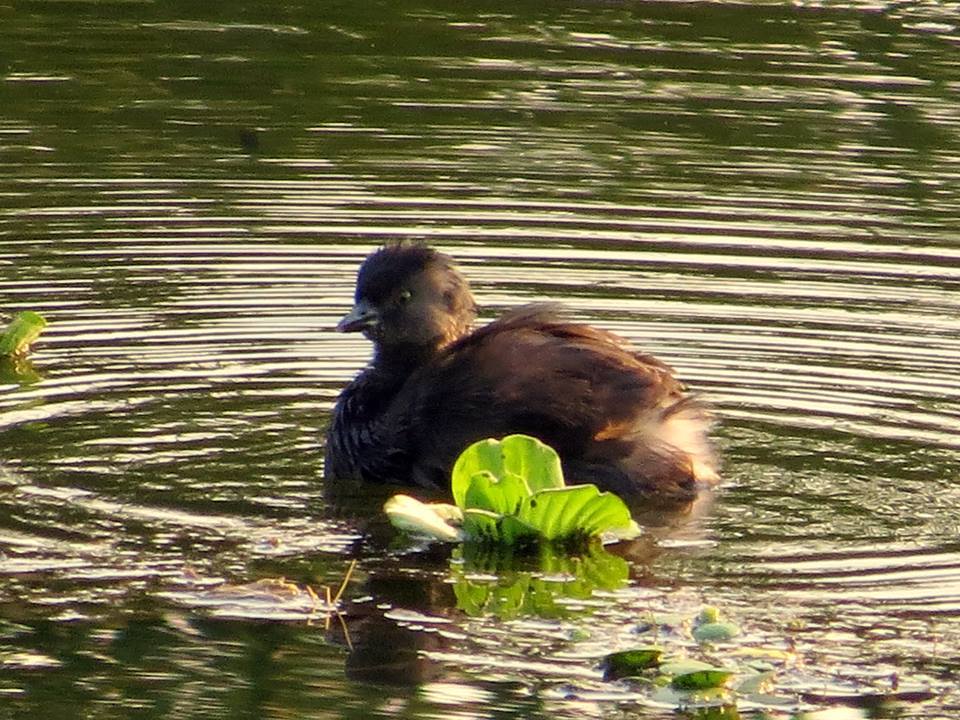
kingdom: Animalia
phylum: Chordata
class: Aves
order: Podicipediformes
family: Podicipedidae
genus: Tachybaptus
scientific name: Tachybaptus dominicus
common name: Least grebe
